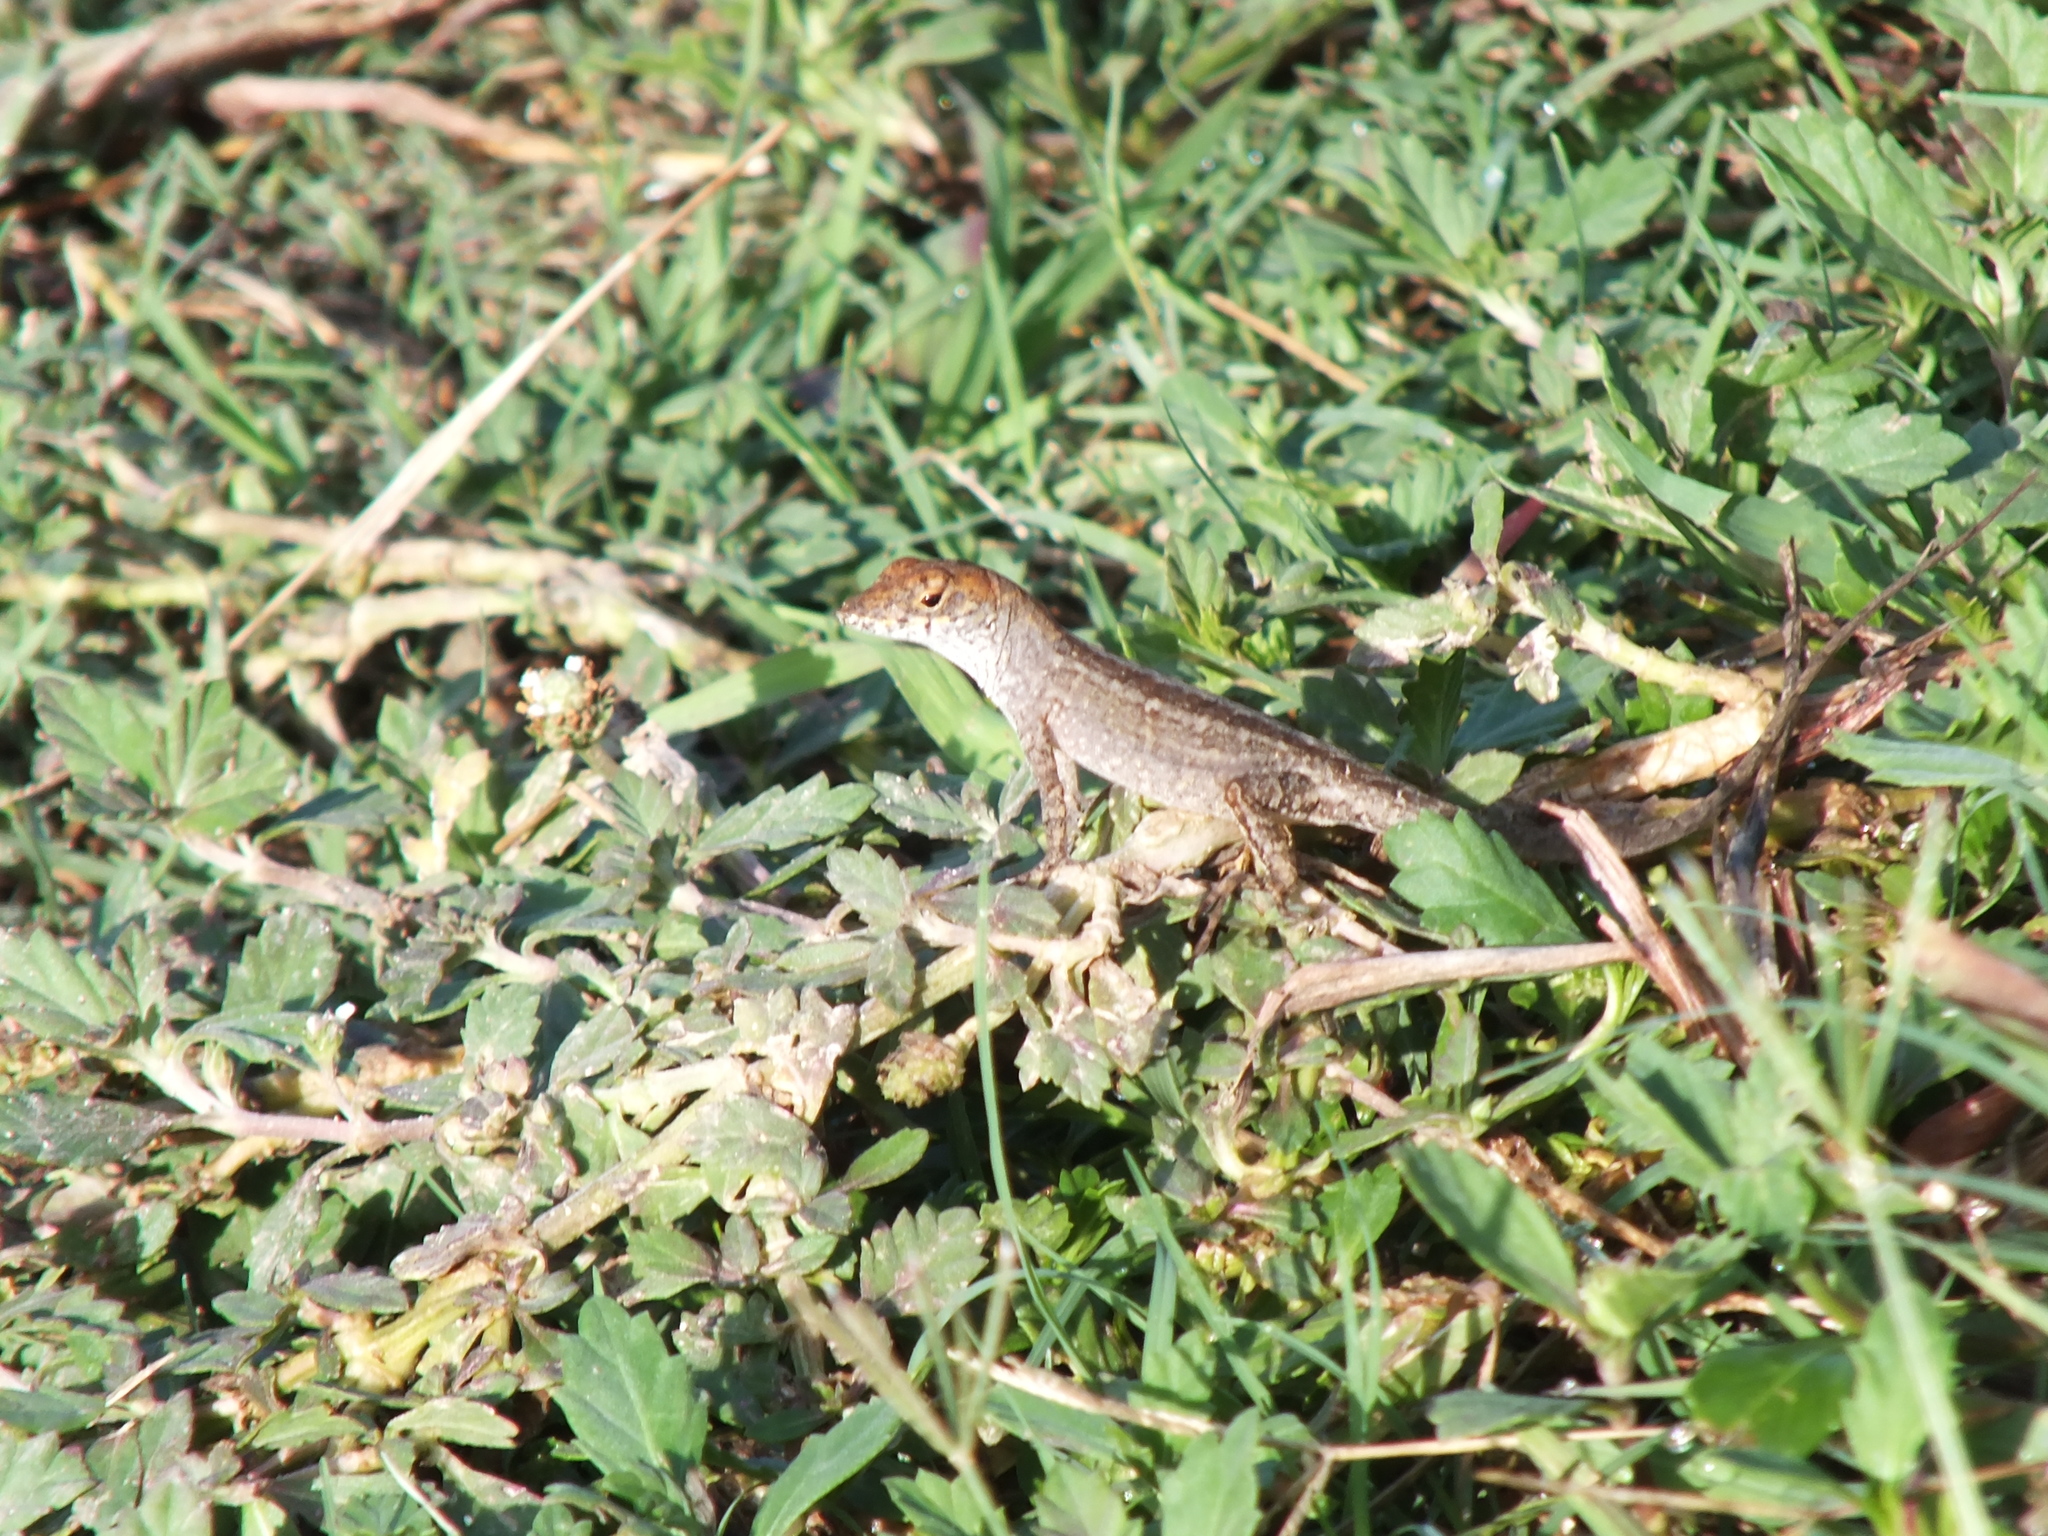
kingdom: Animalia
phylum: Chordata
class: Squamata
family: Dactyloidae
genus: Anolis
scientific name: Anolis sagrei
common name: Brown anole
